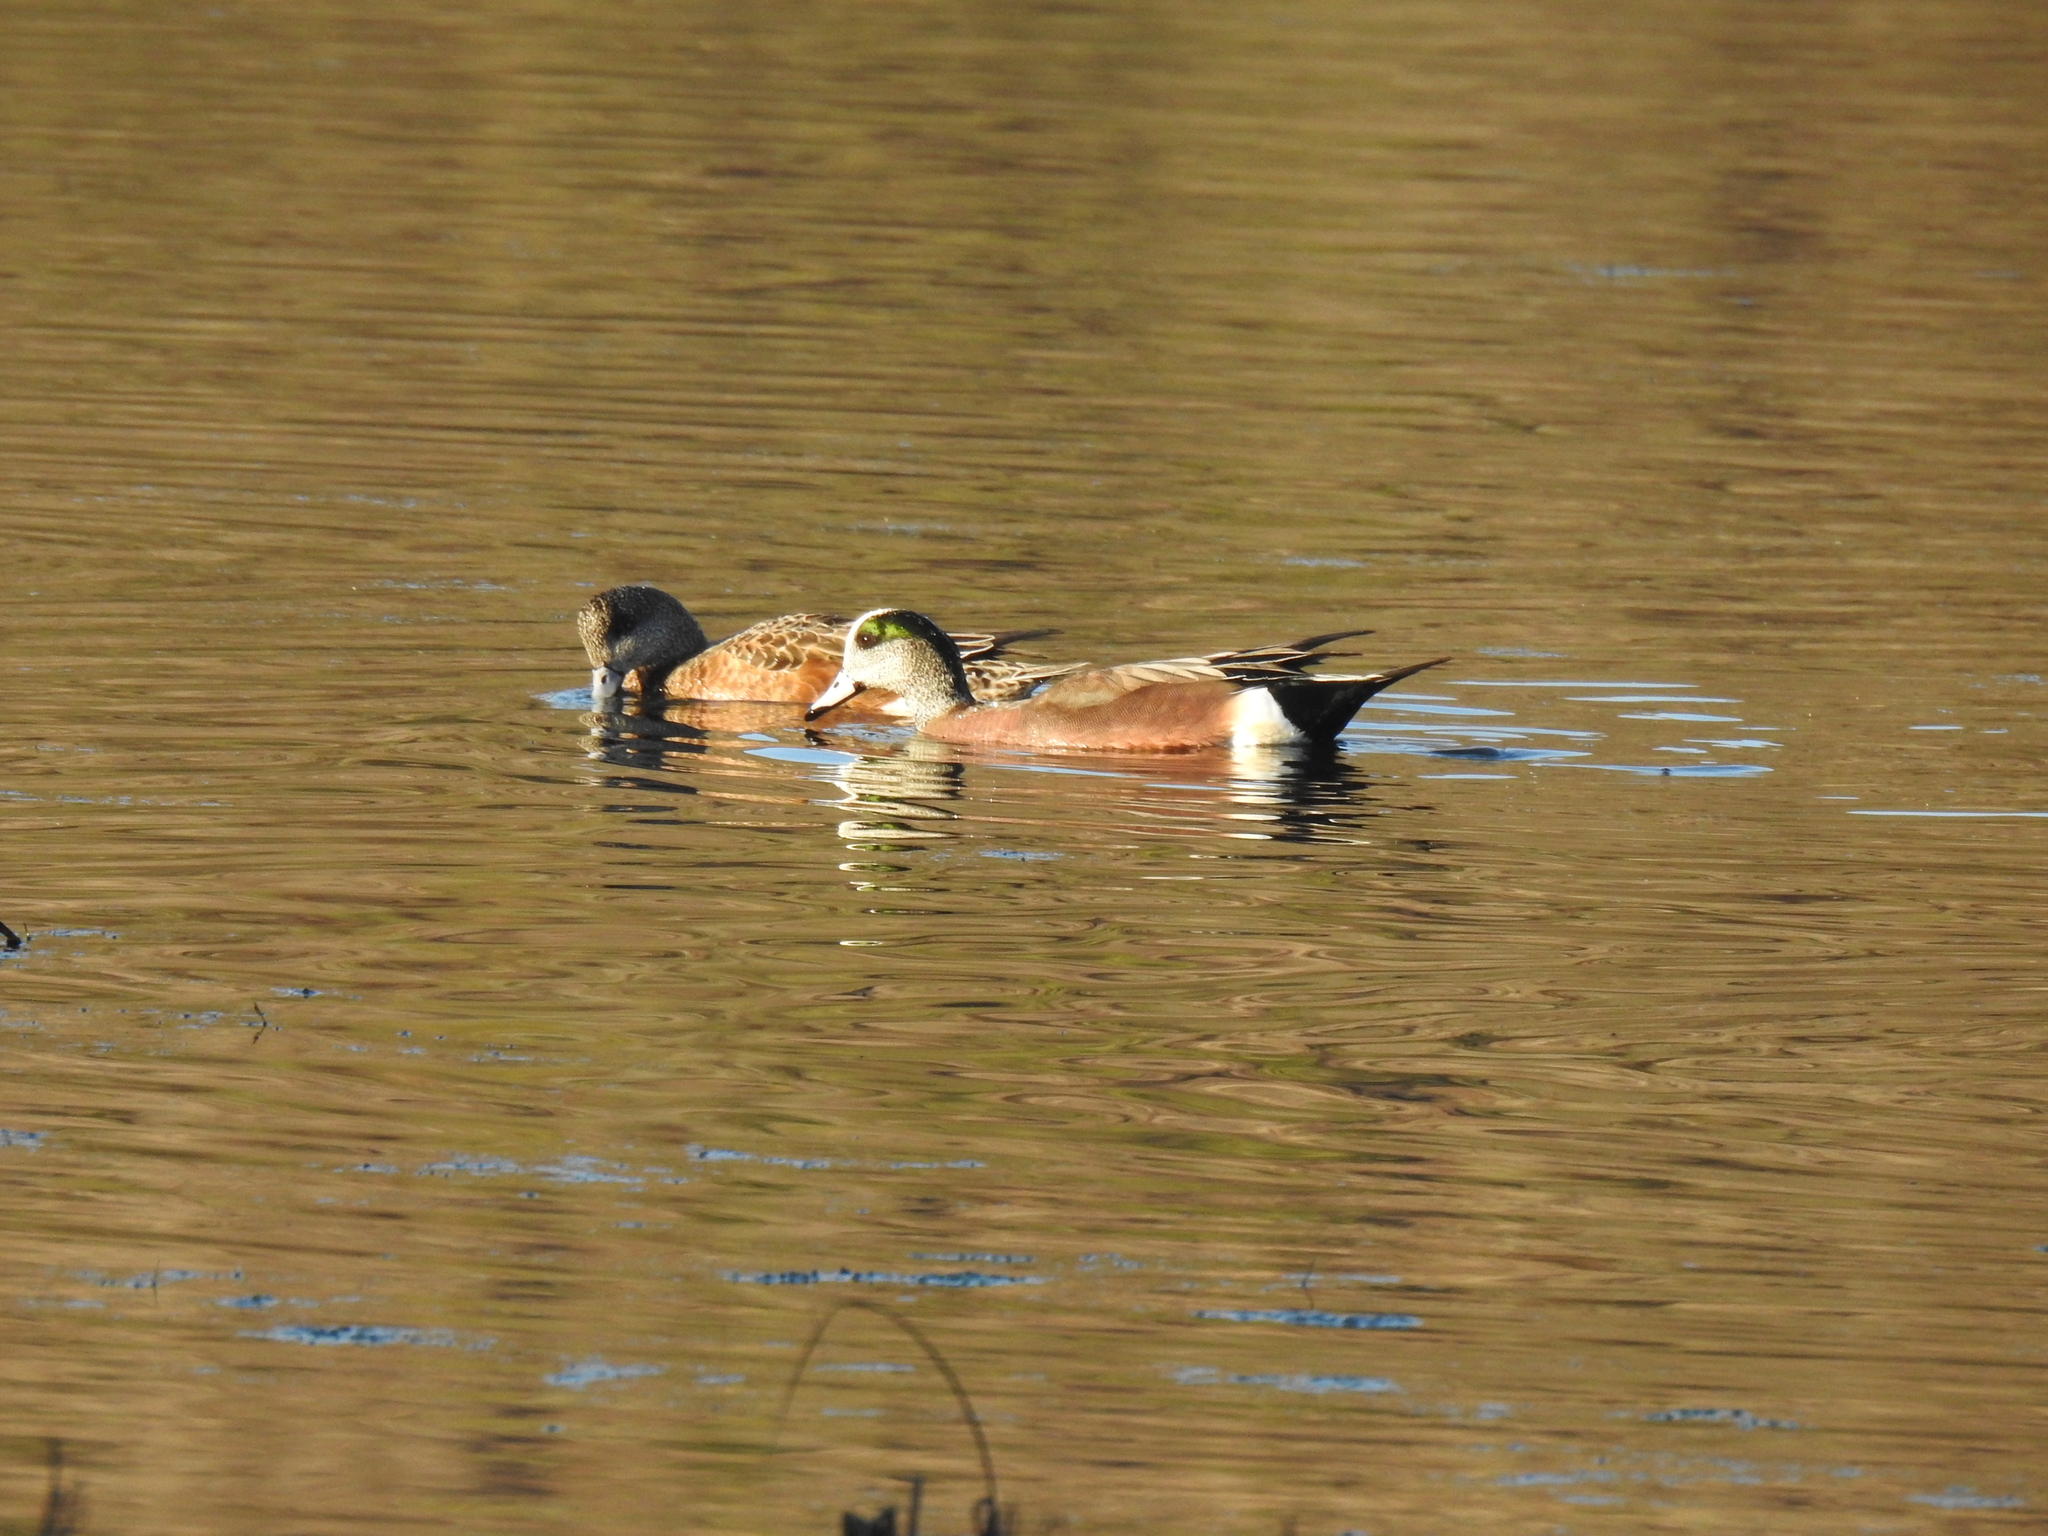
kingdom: Animalia
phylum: Chordata
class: Aves
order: Anseriformes
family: Anatidae
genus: Mareca
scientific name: Mareca americana
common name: American wigeon
